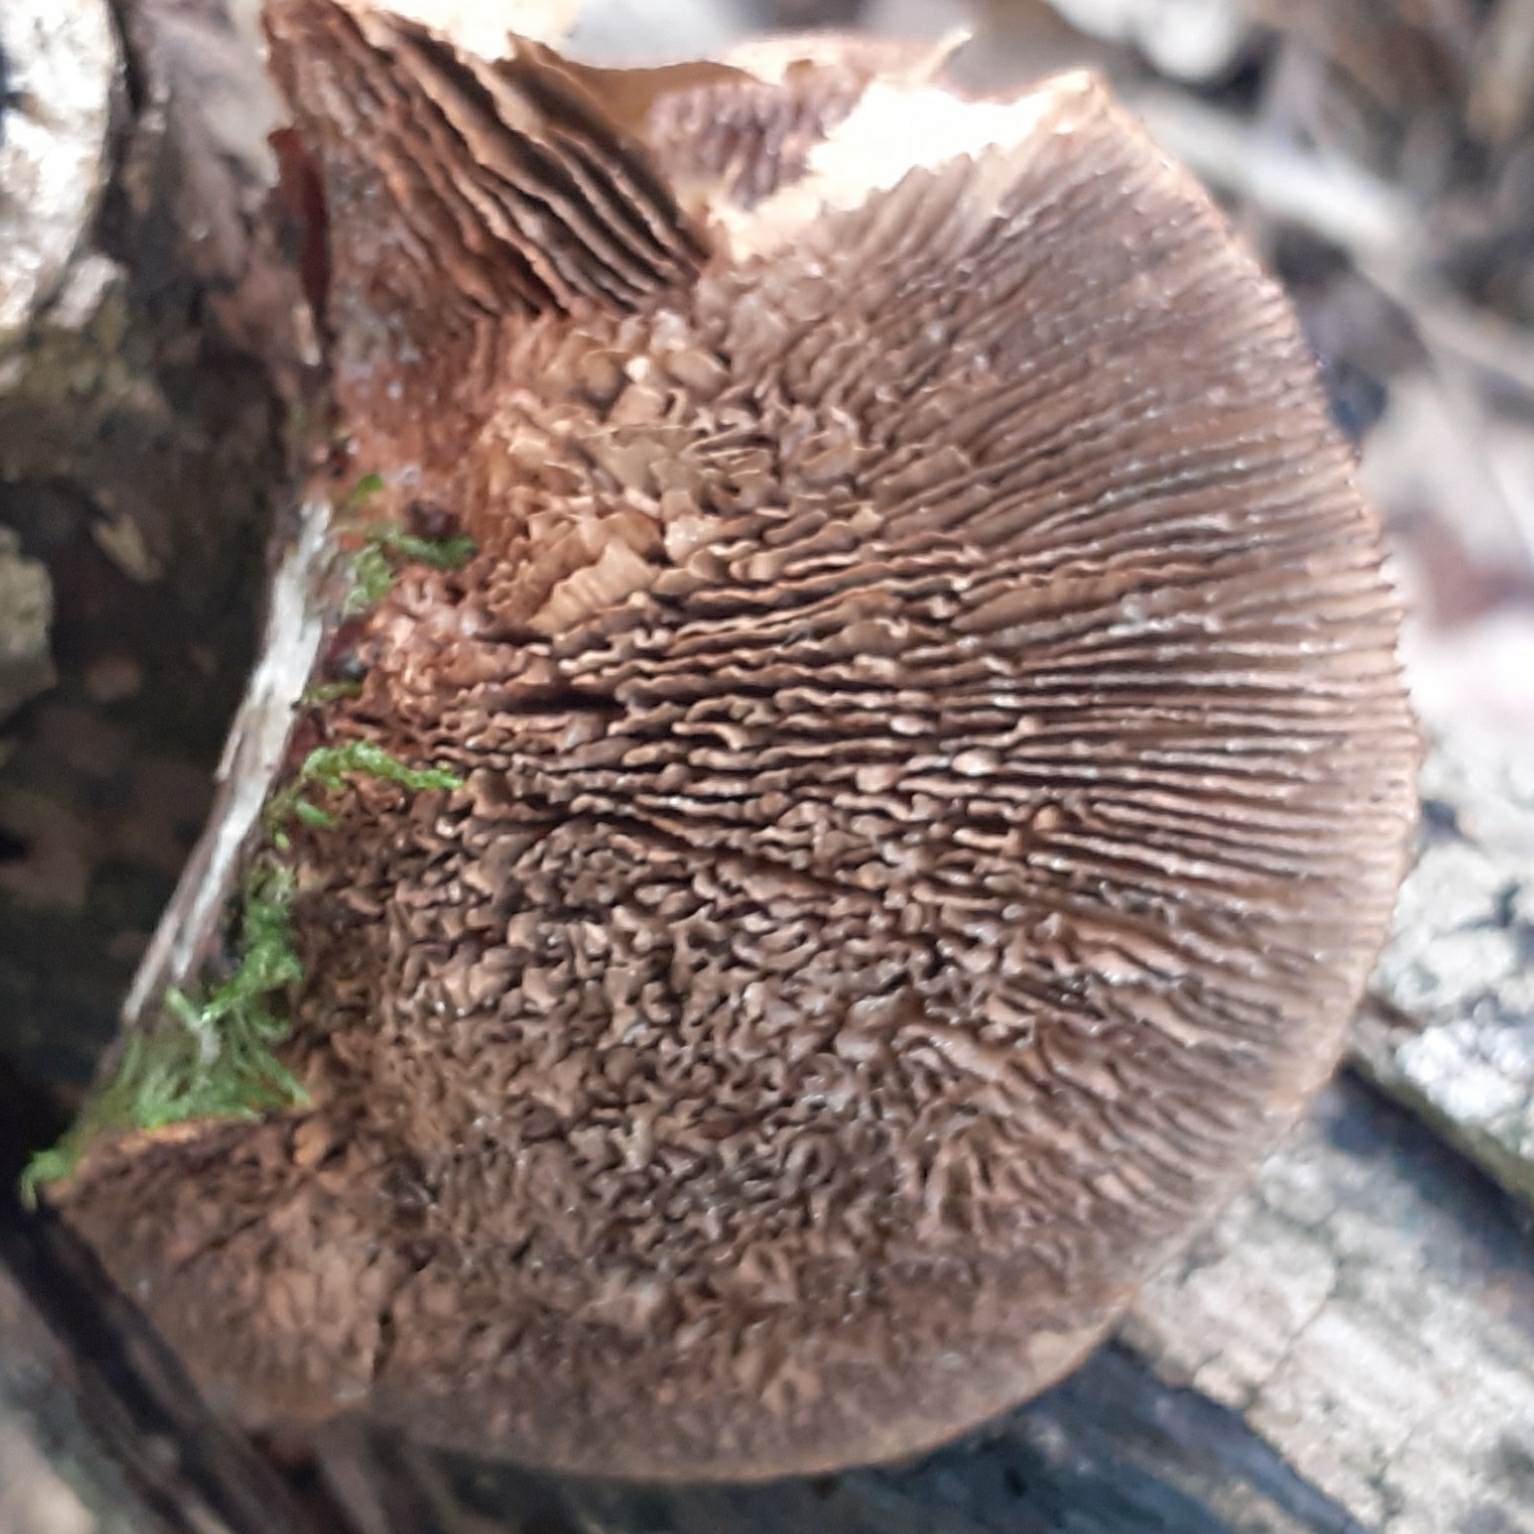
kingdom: Fungi
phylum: Basidiomycota
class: Agaricomycetes
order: Polyporales
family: Polyporaceae
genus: Daedaleopsis
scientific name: Daedaleopsis confragosa
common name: Blushing bracket
